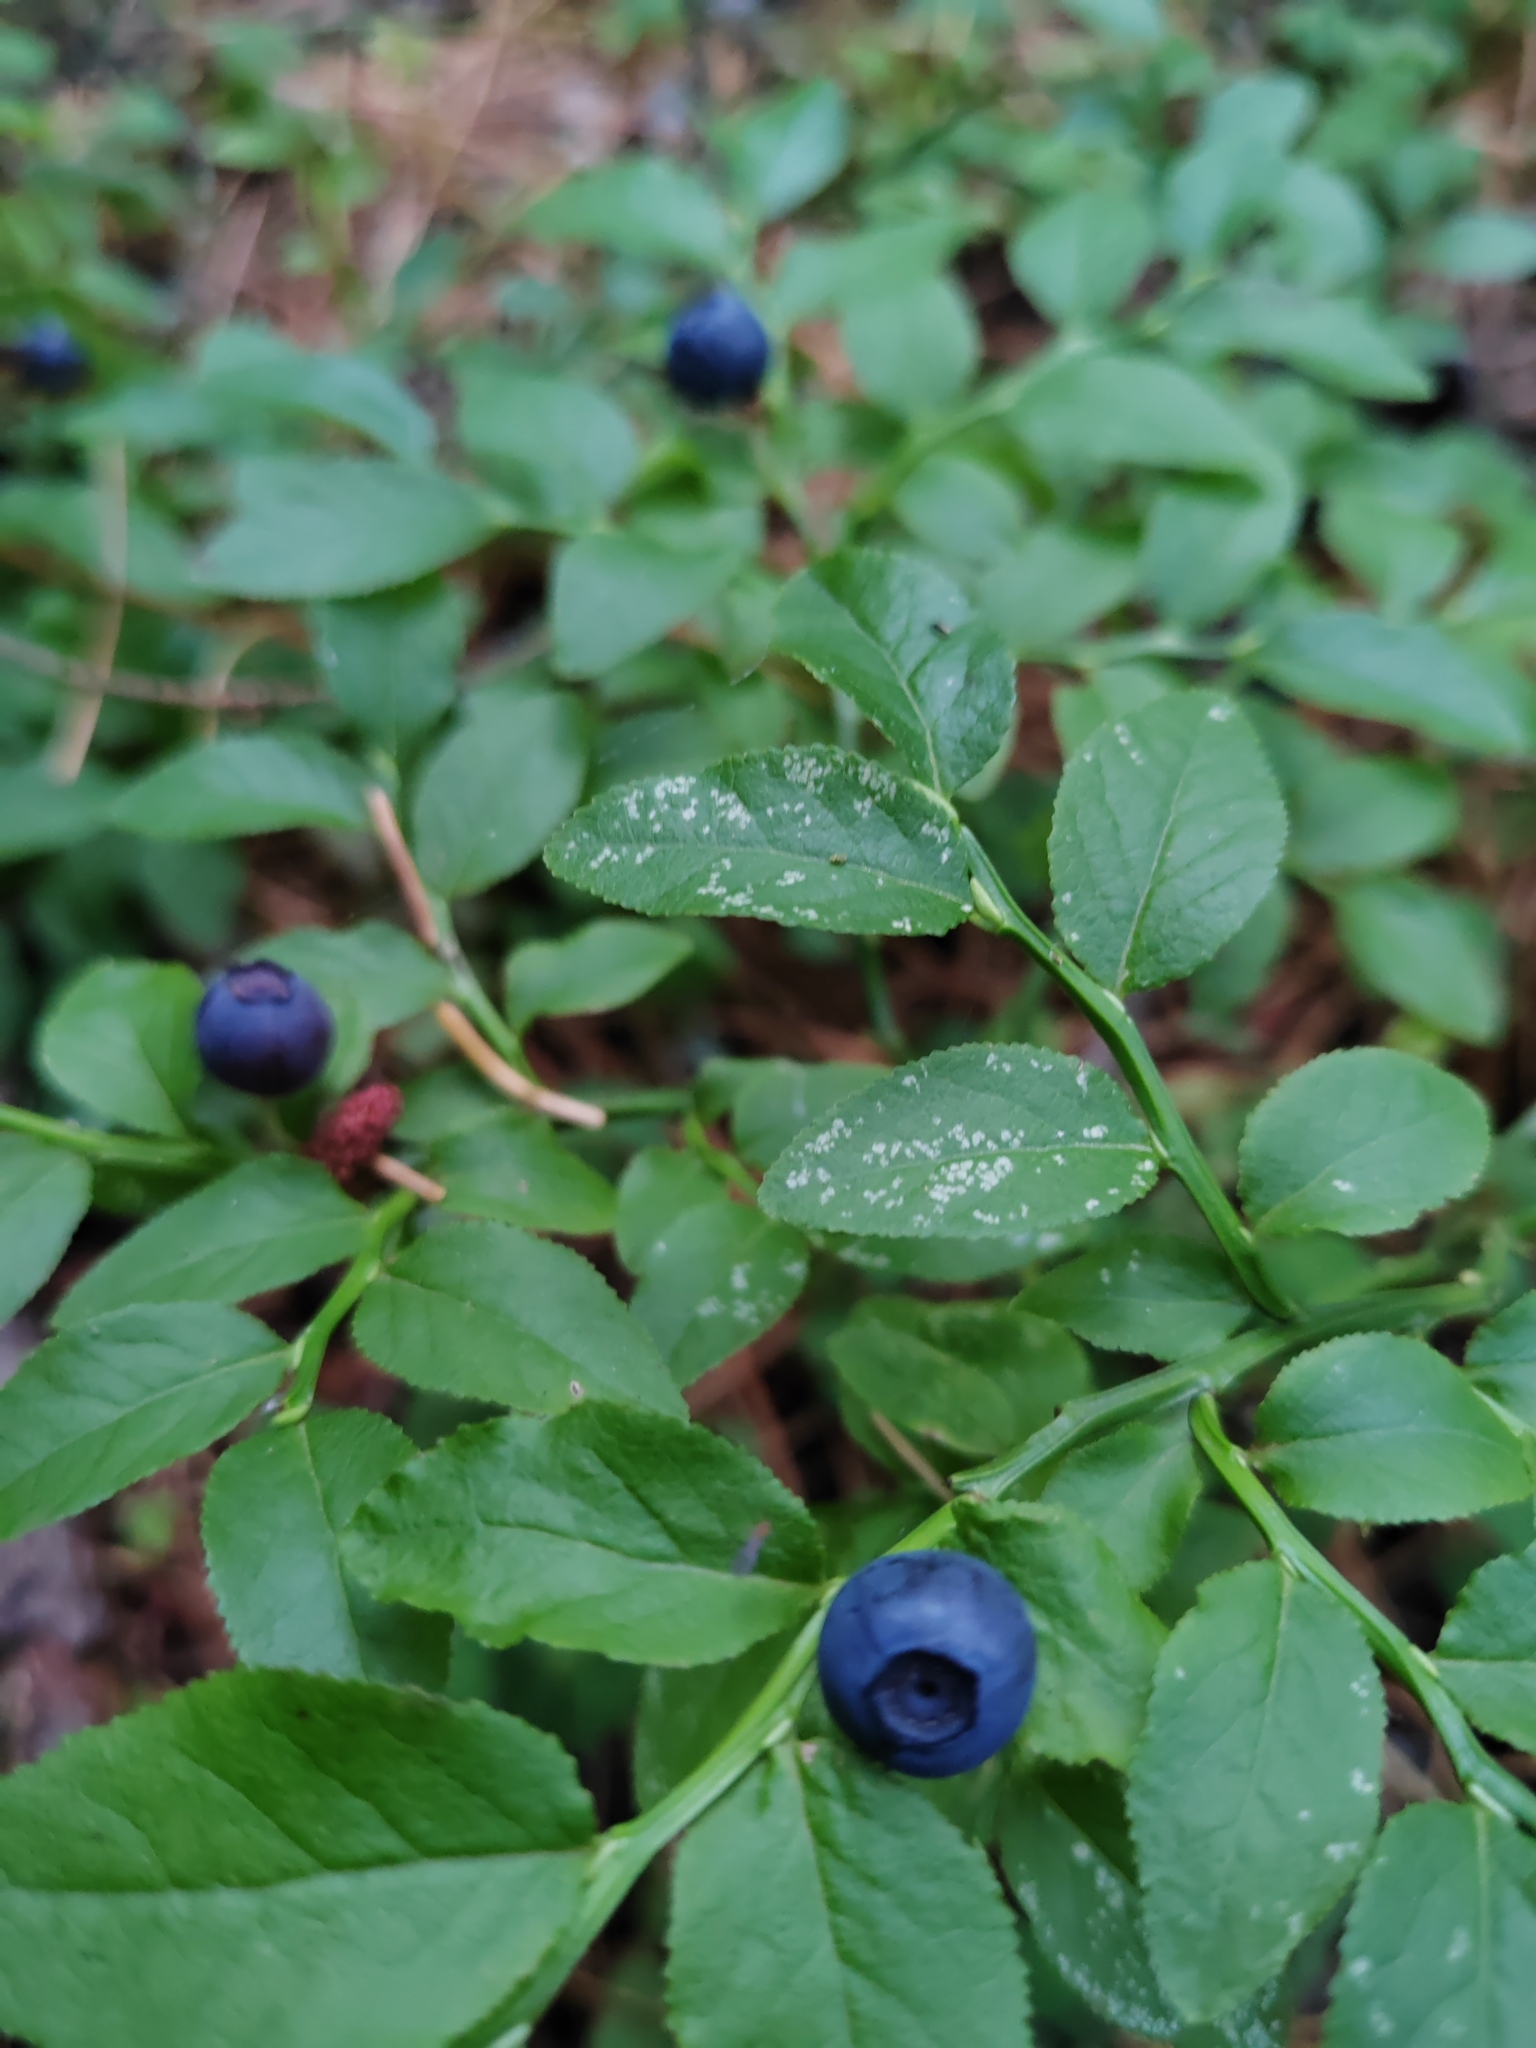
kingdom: Plantae
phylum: Tracheophyta
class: Magnoliopsida
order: Ericales
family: Ericaceae
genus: Vaccinium
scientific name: Vaccinium myrtillus
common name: Bilberry
